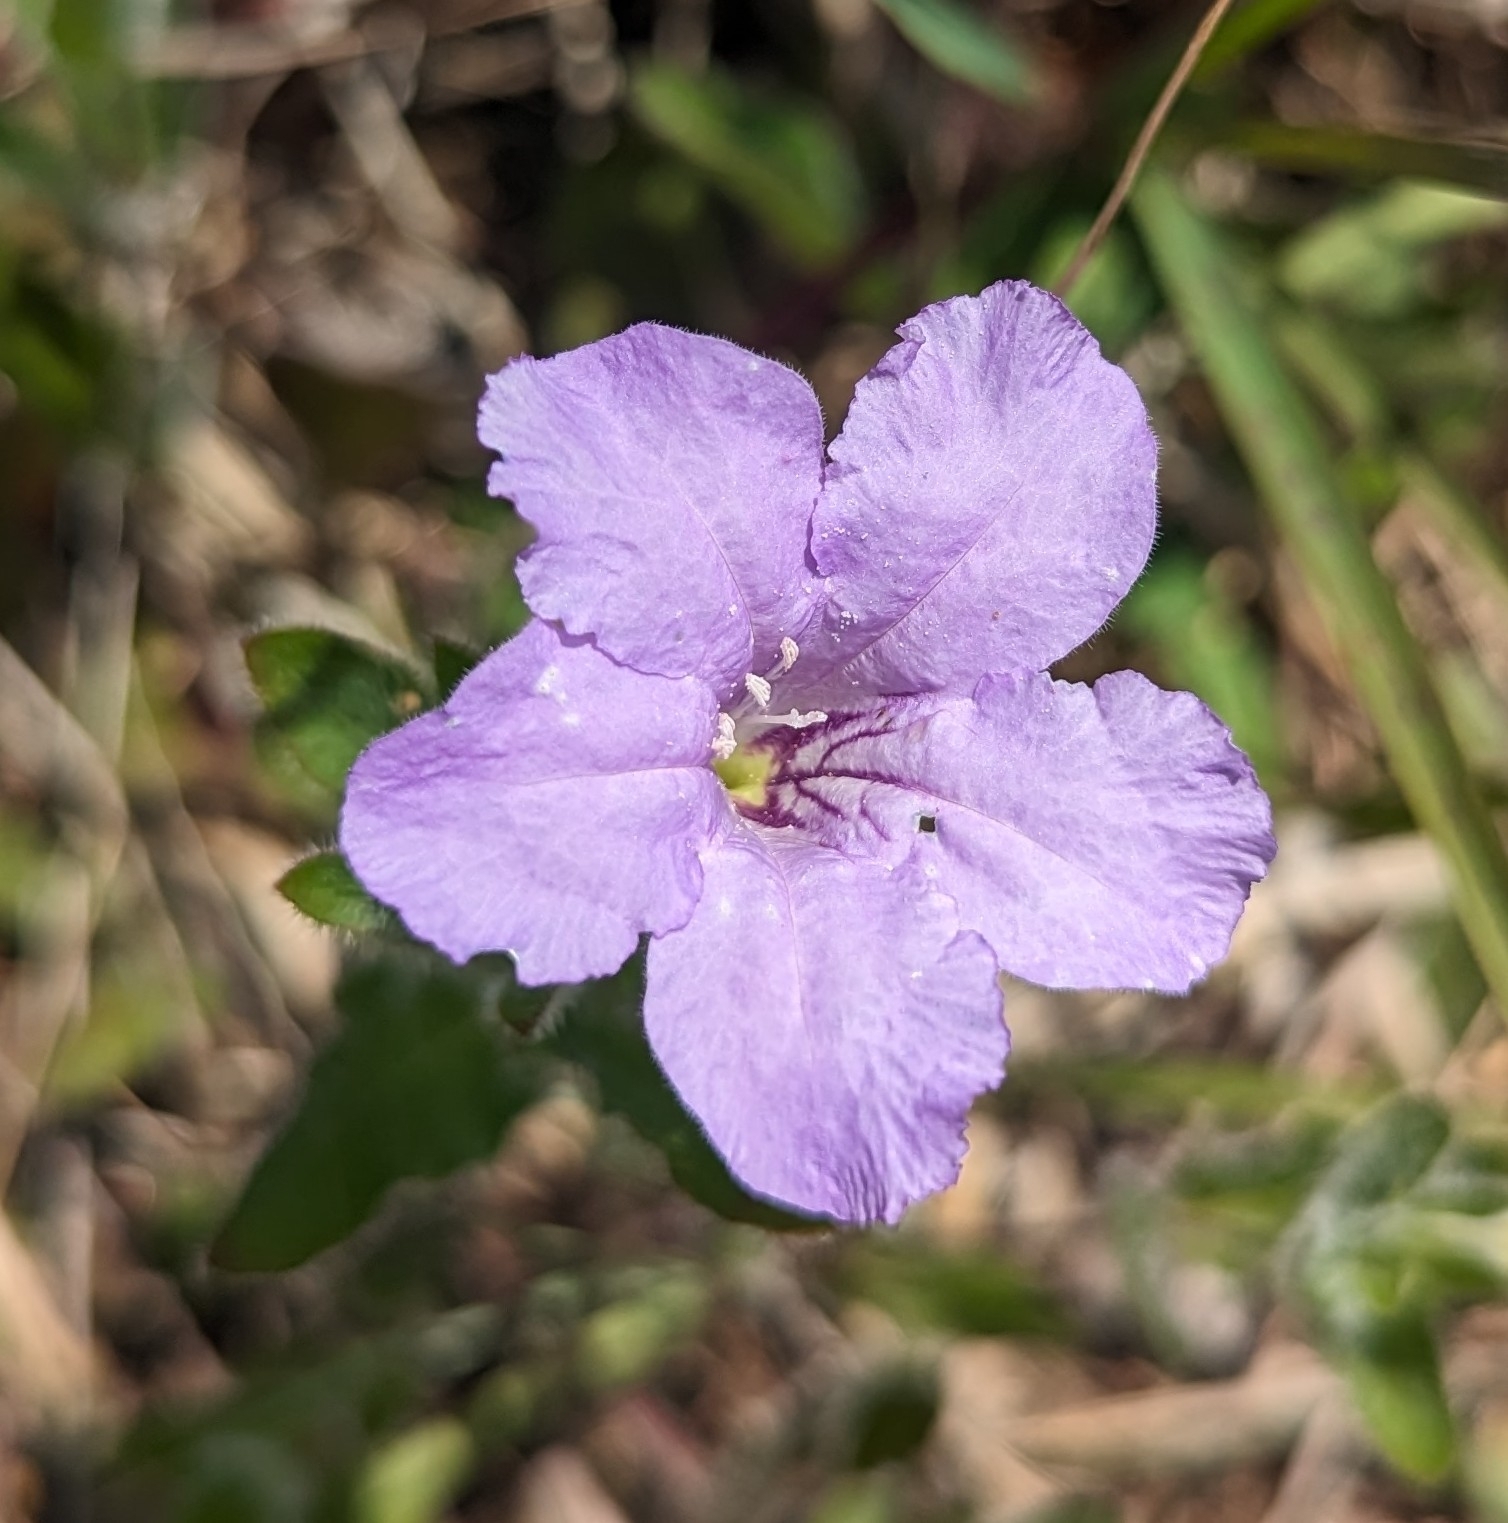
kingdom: Plantae
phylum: Tracheophyta
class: Magnoliopsida
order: Lamiales
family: Acanthaceae
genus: Ruellia
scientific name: Ruellia humilis
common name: Fringe-leaf ruellia
